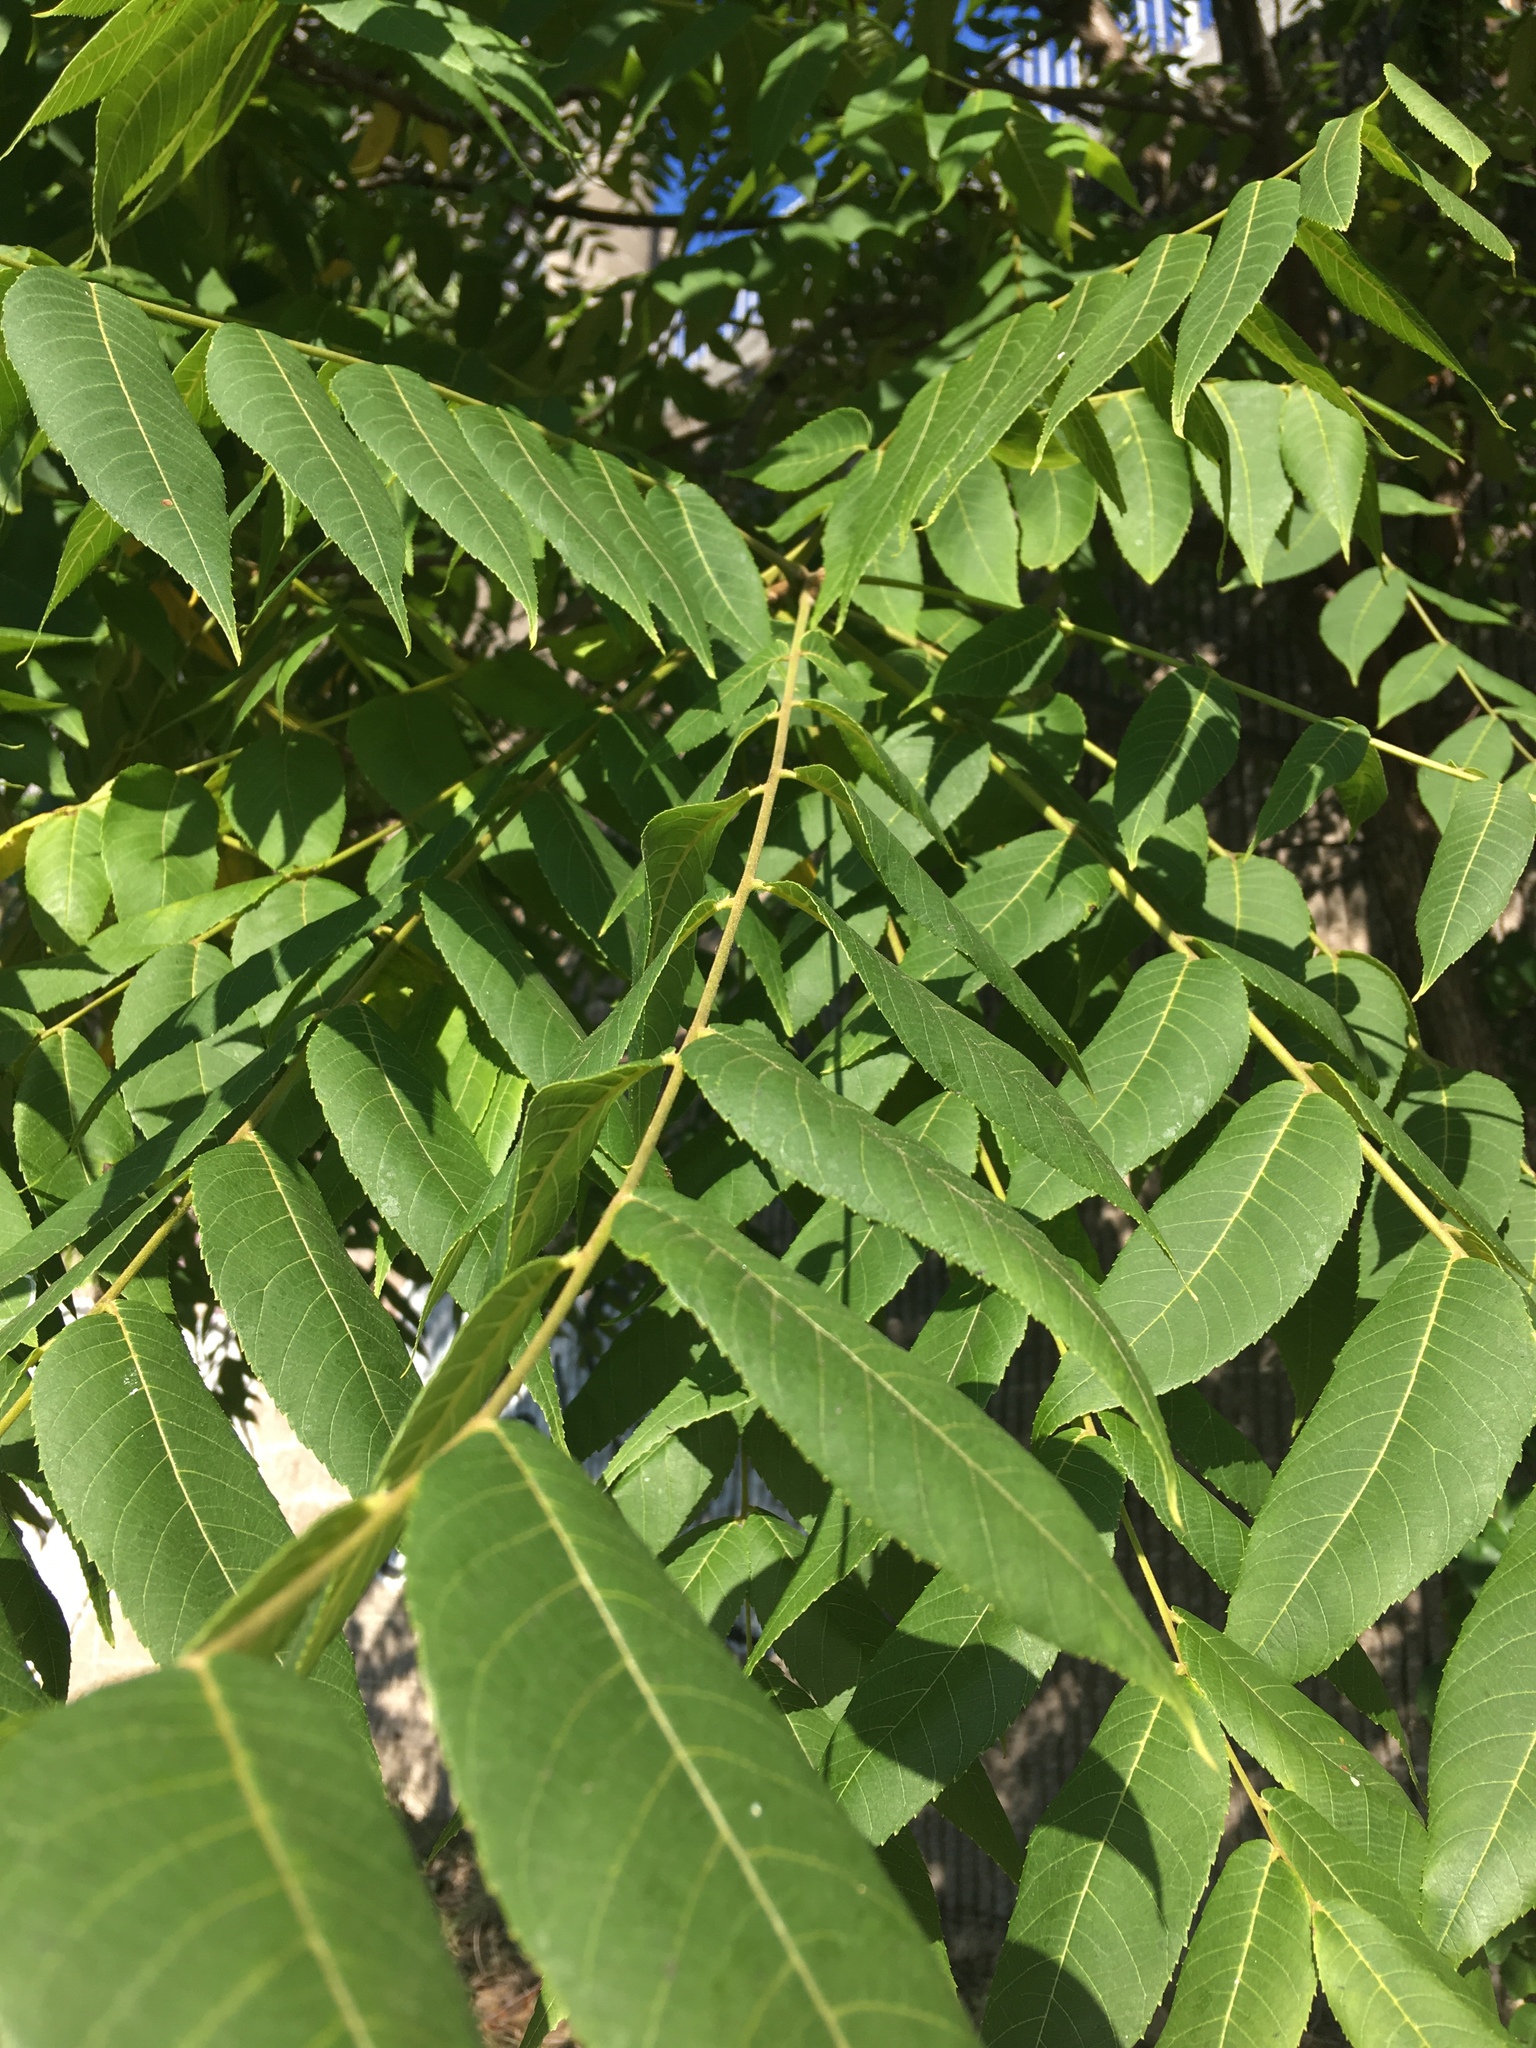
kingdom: Plantae
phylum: Tracheophyta
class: Magnoliopsida
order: Fagales
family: Juglandaceae
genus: Juglans
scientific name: Juglans nigra
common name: Black walnut
